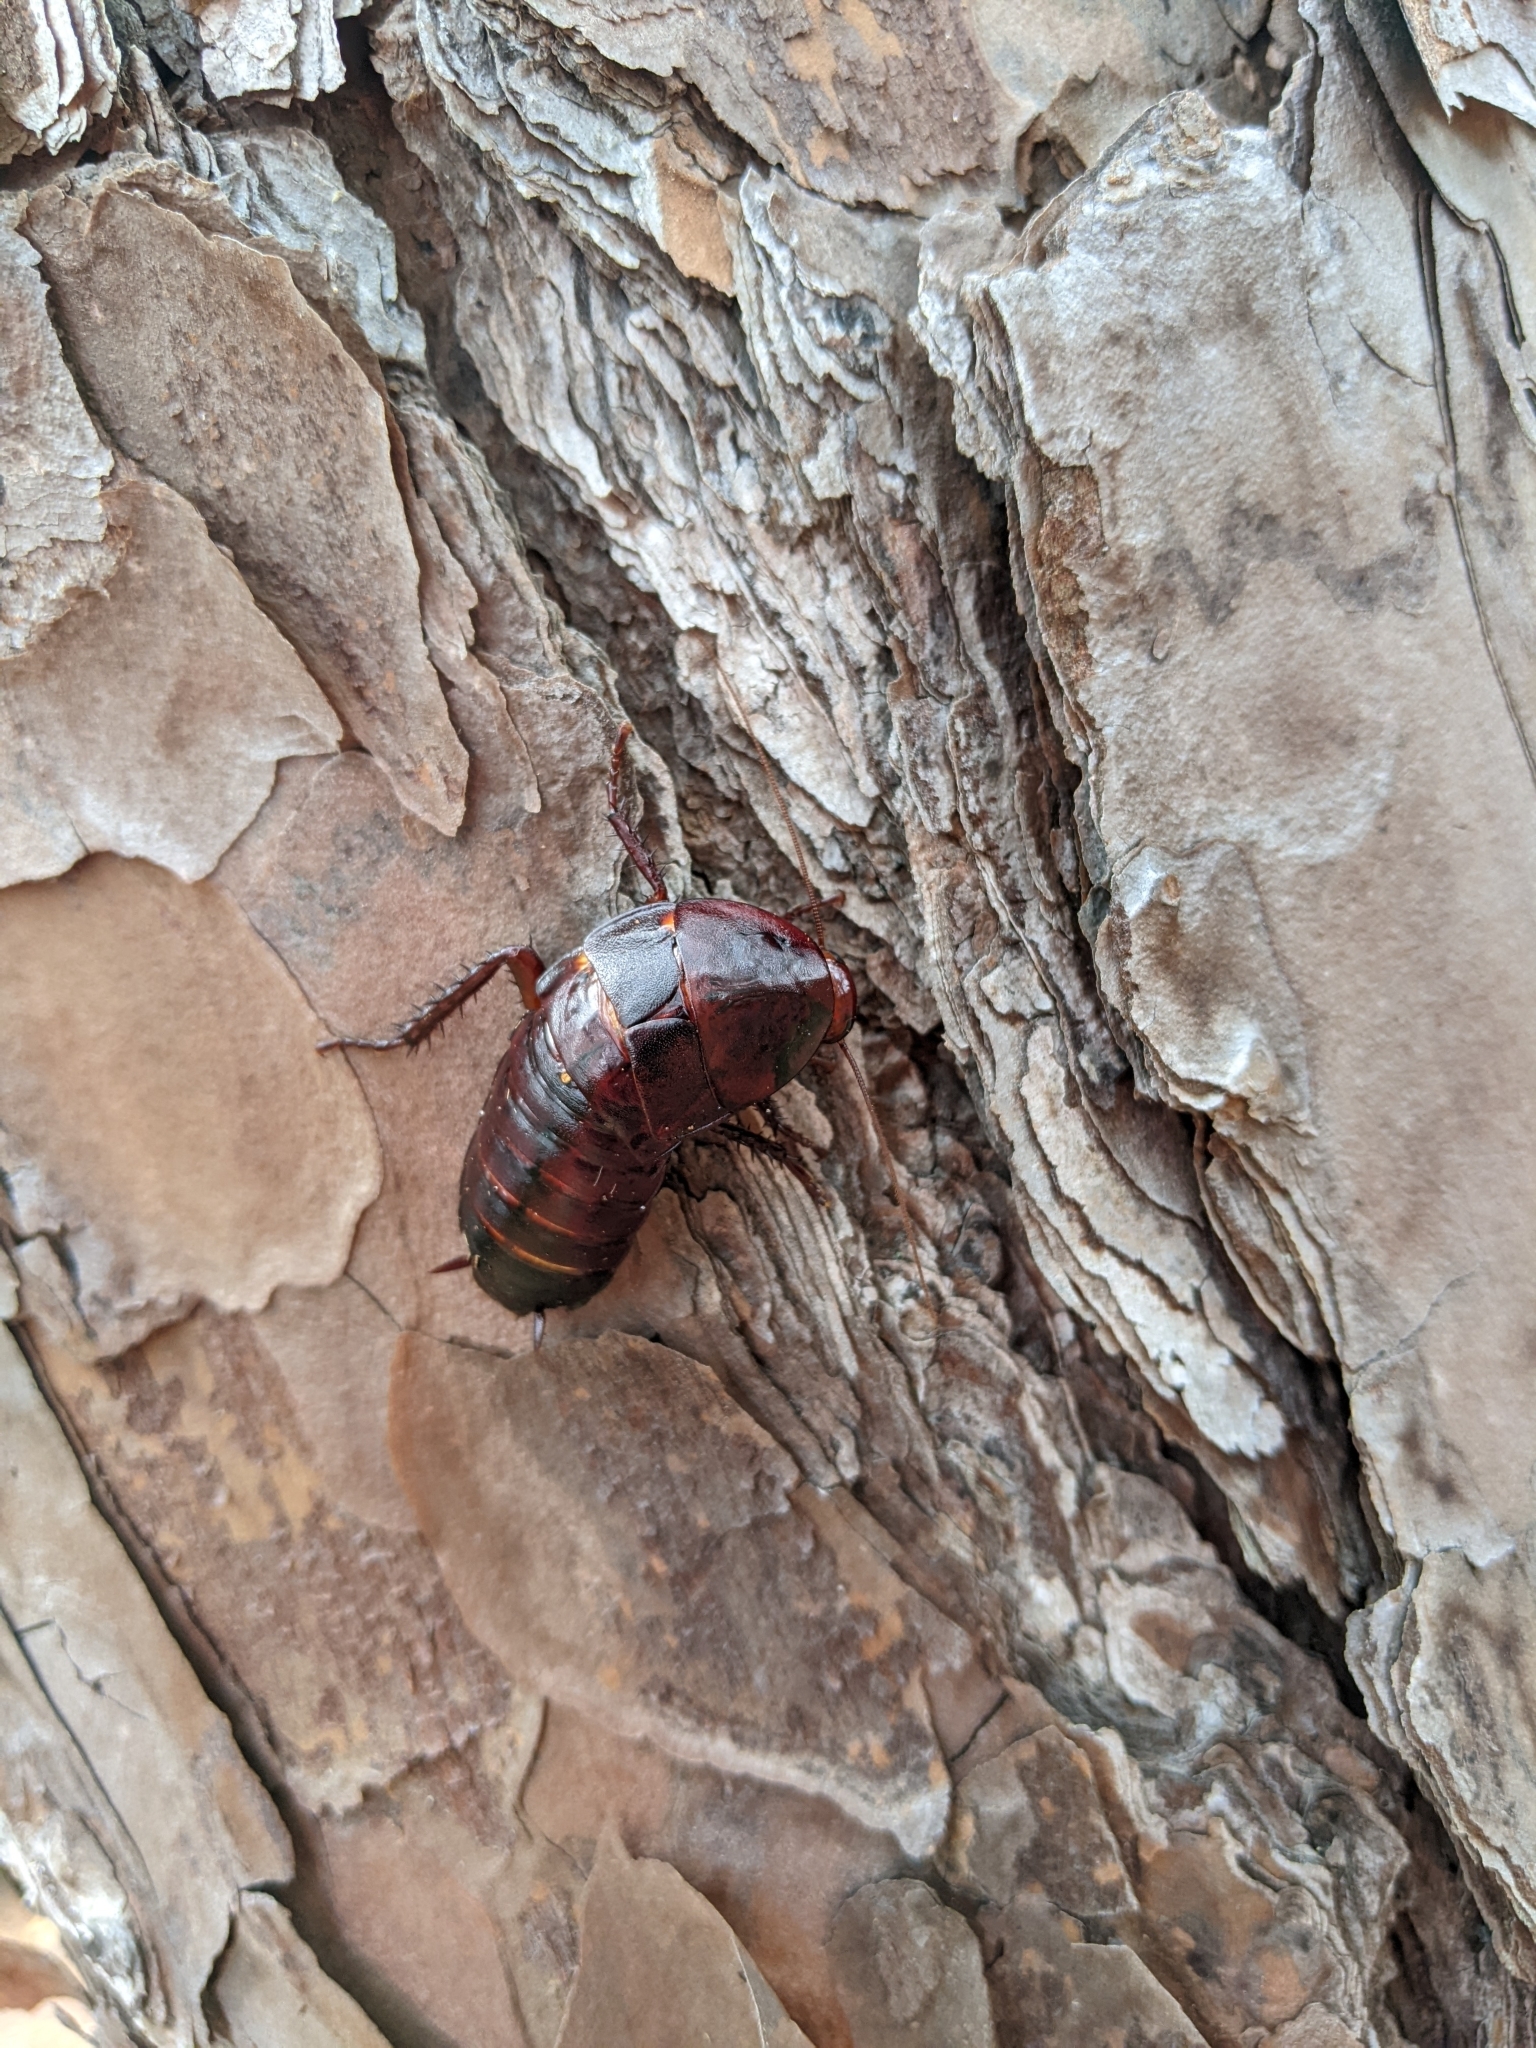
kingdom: Animalia
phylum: Arthropoda
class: Insecta
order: Blattodea
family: Blattidae
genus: Eurycotis
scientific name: Eurycotis floridana
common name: Florida cockroach
